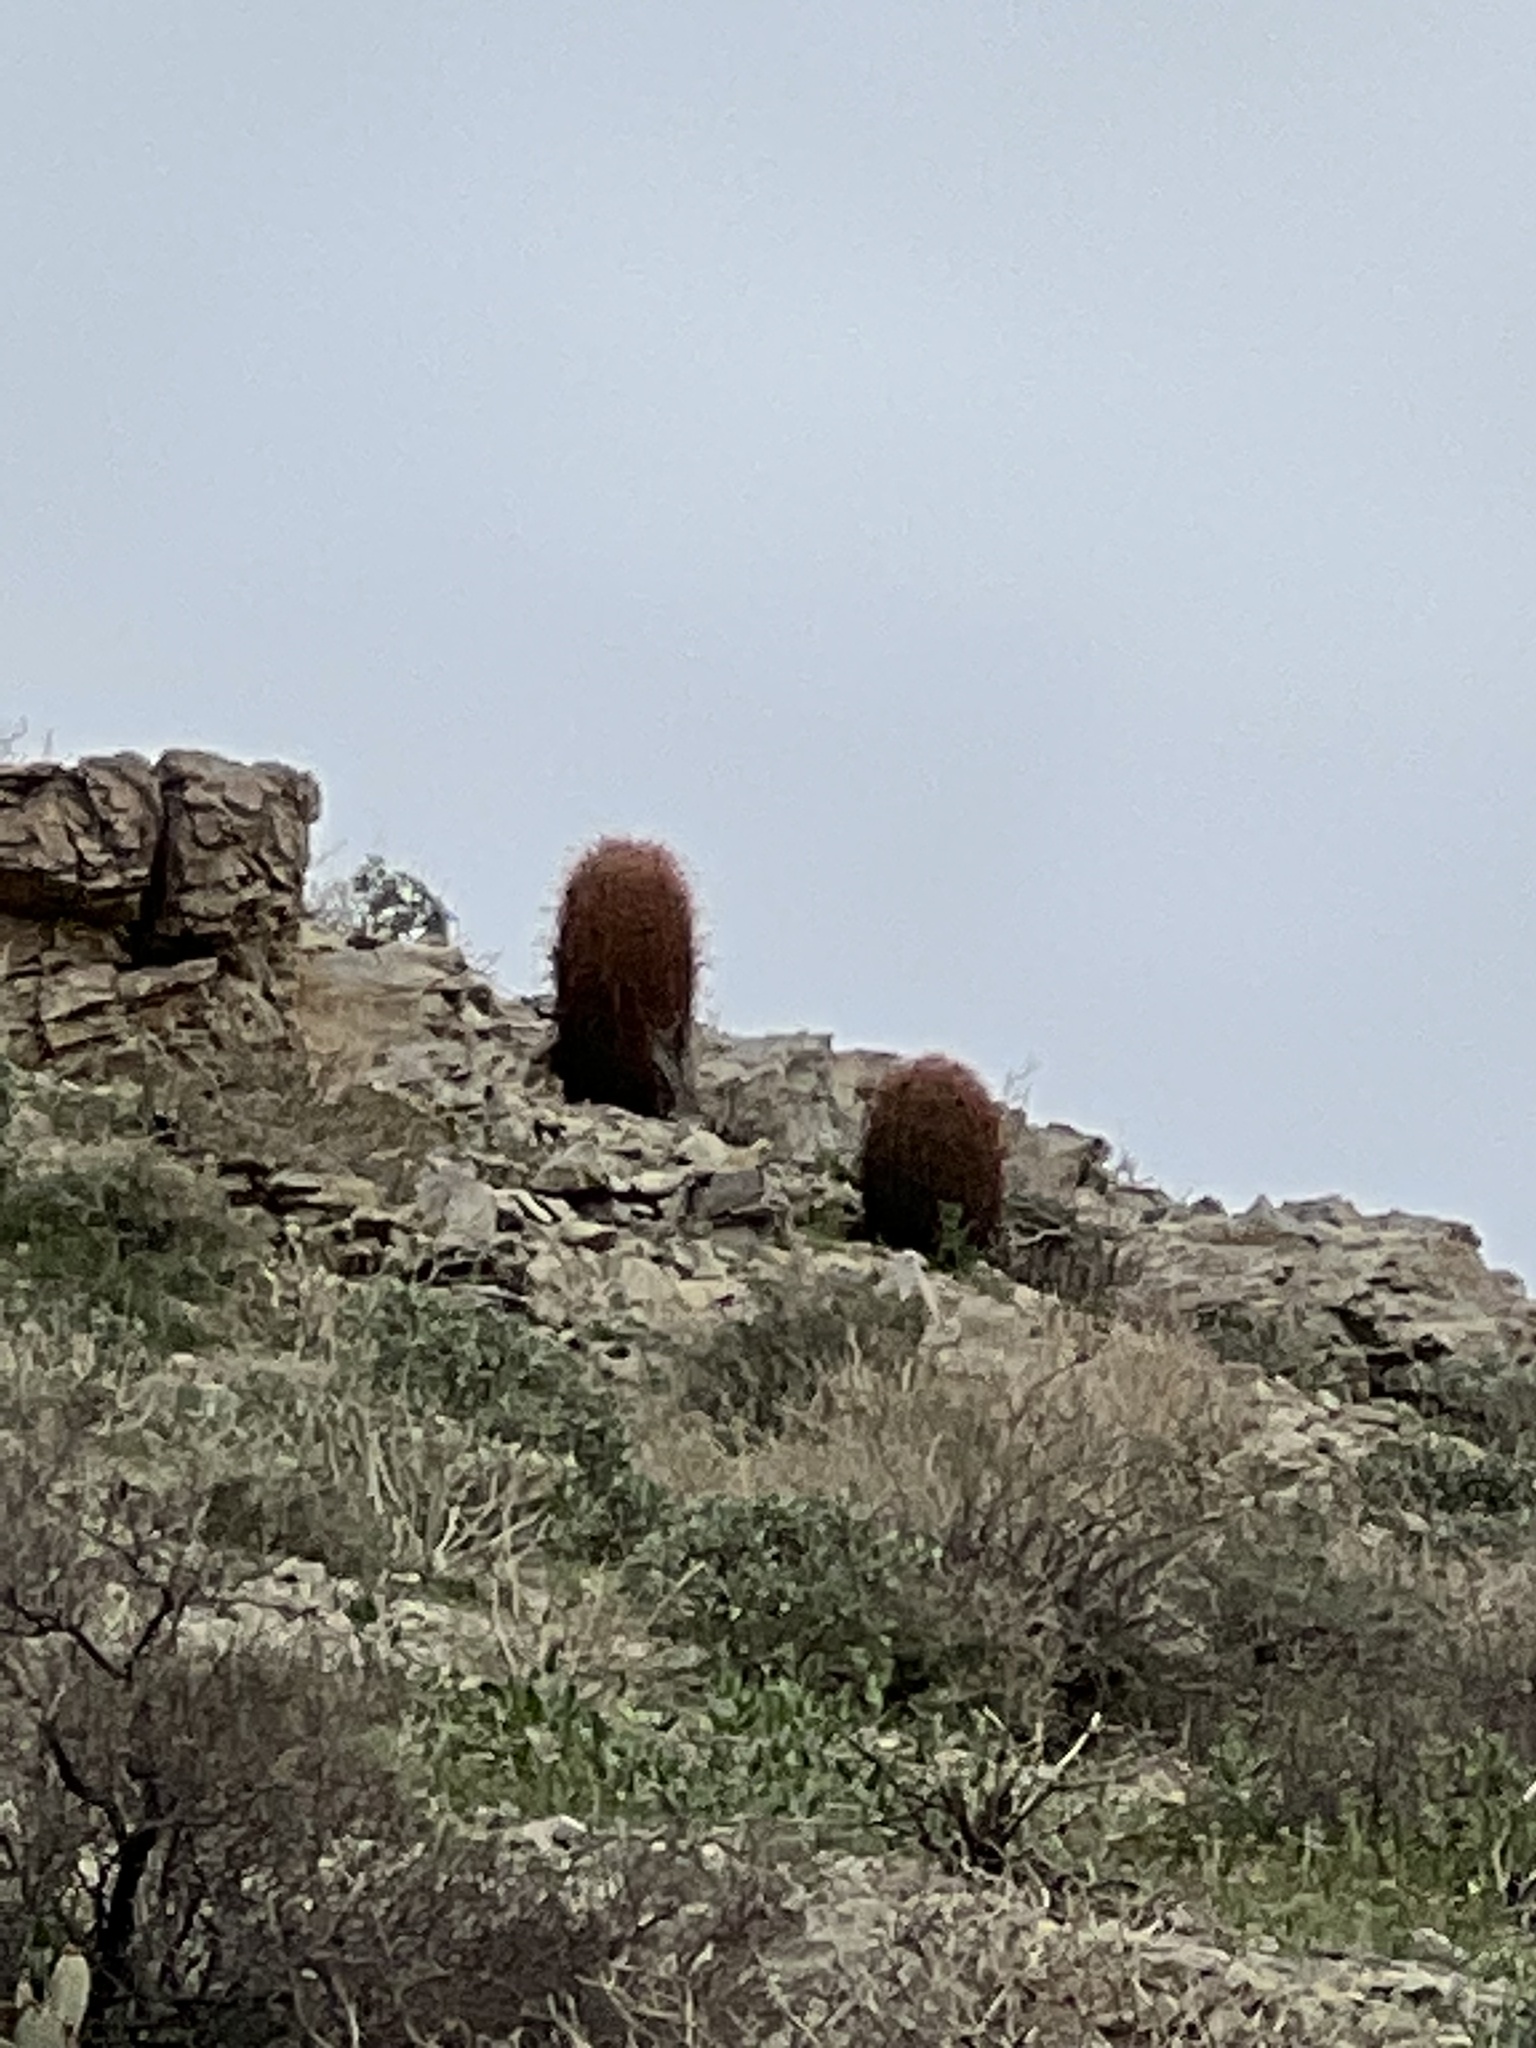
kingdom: Plantae
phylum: Tracheophyta
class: Magnoliopsida
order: Caryophyllales
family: Cactaceae
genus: Ferocactus
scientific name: Ferocactus cylindraceus
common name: California barrel cactus
